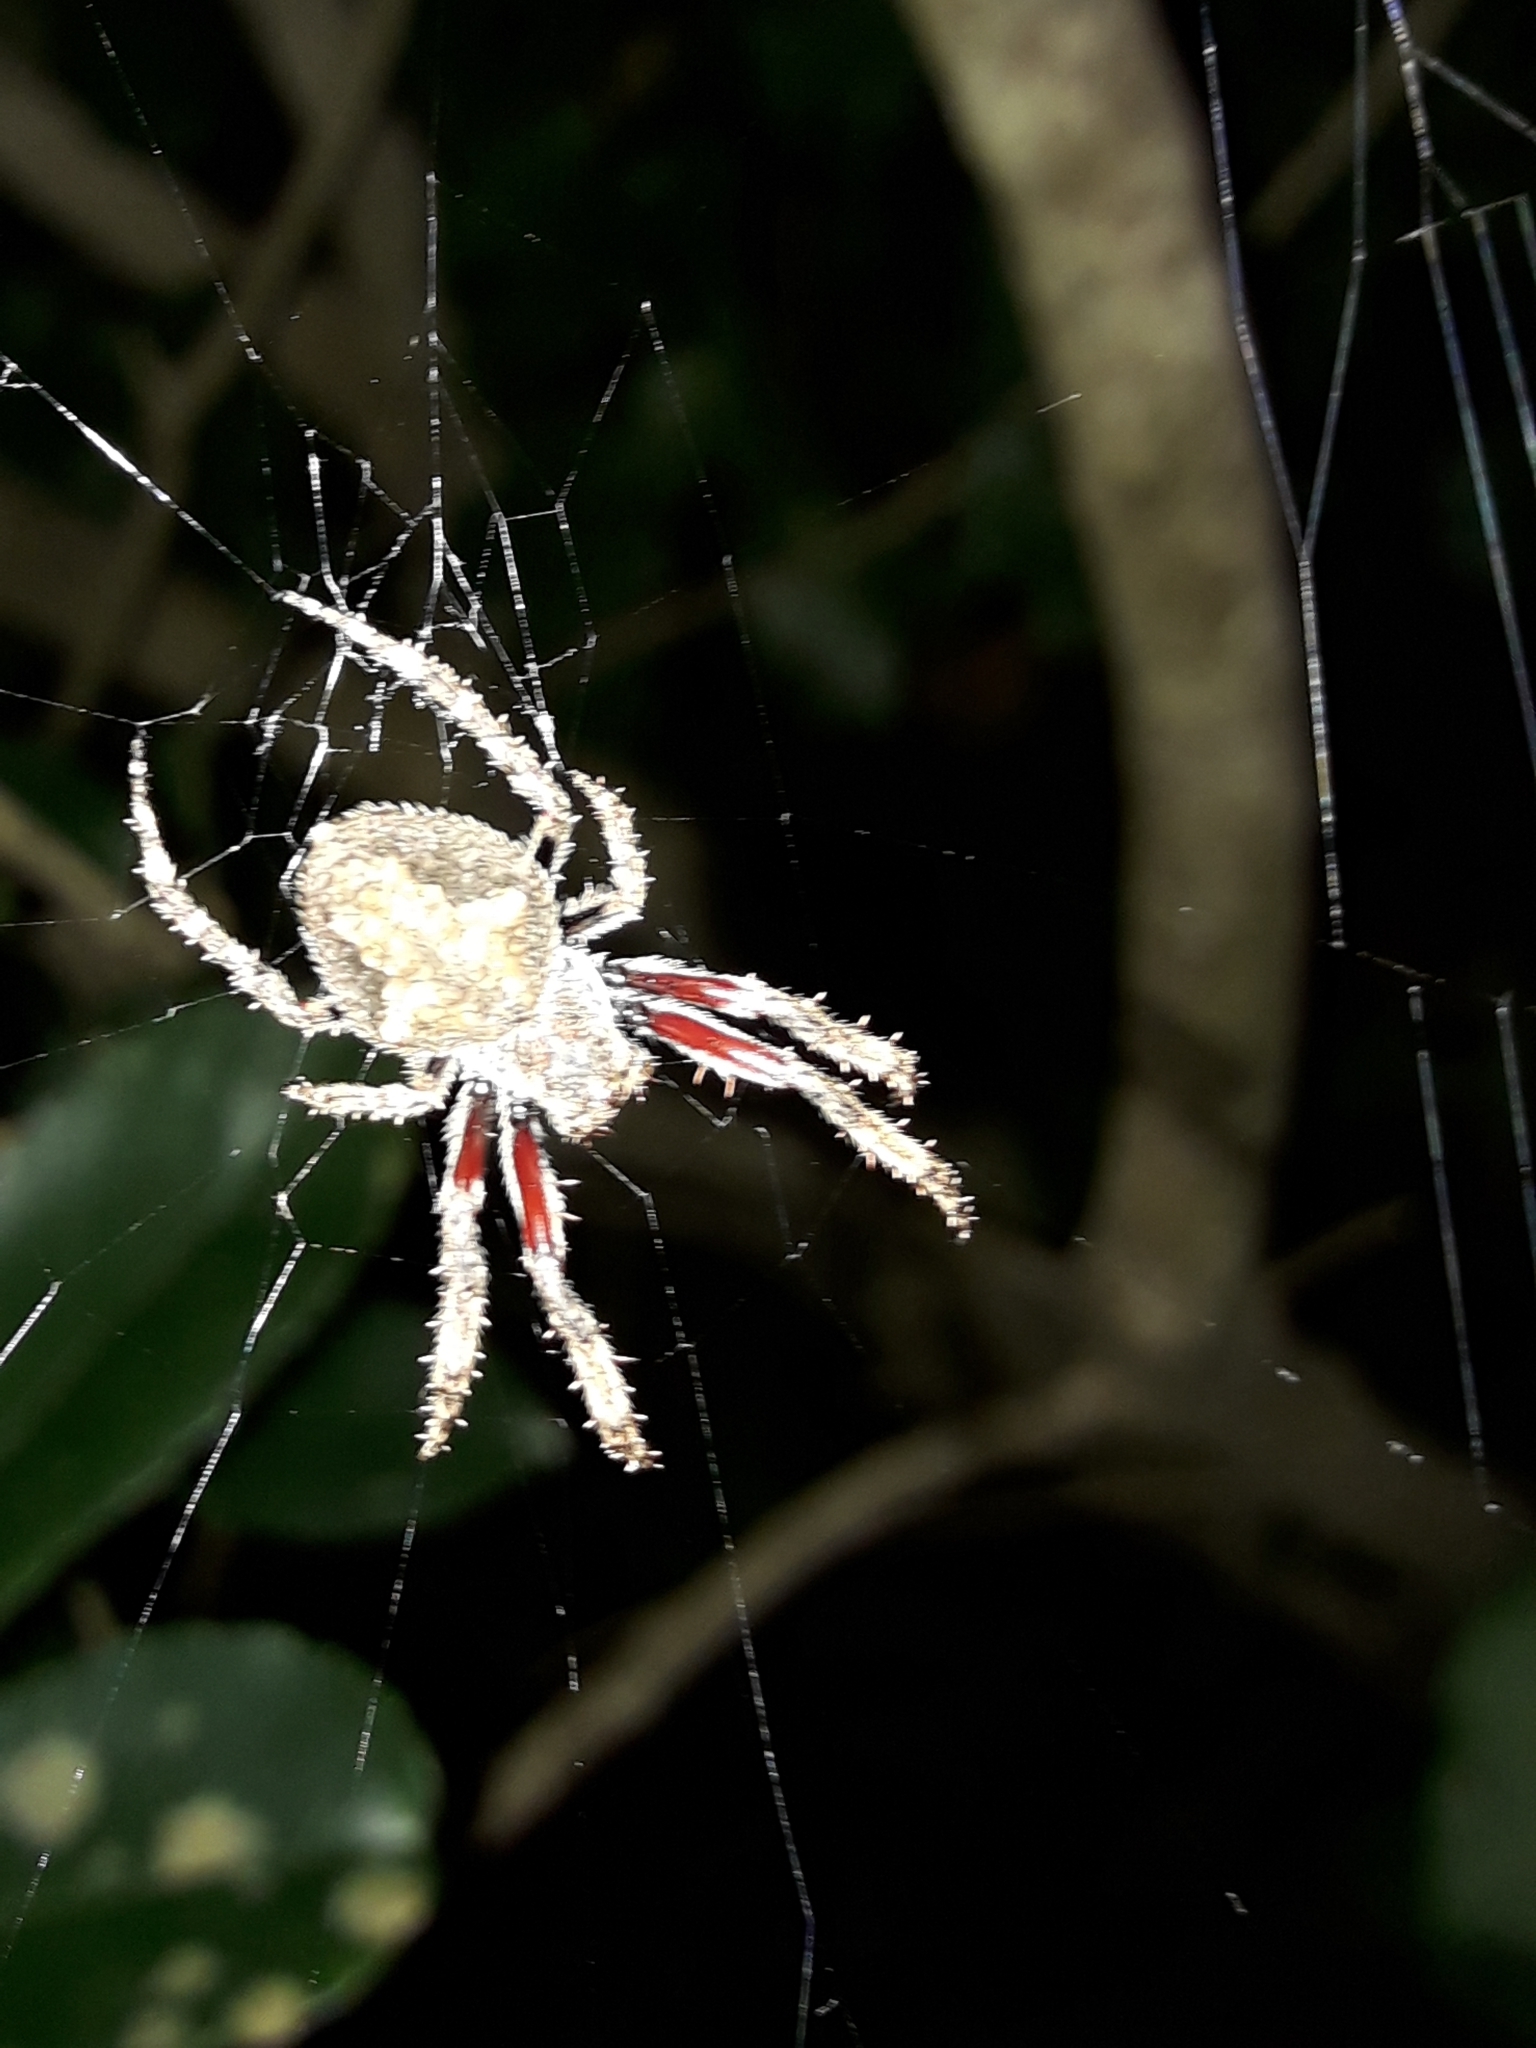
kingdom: Animalia
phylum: Arthropoda
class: Arachnida
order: Araneae
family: Araneidae
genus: Eriophora
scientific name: Eriophora pustulosa
